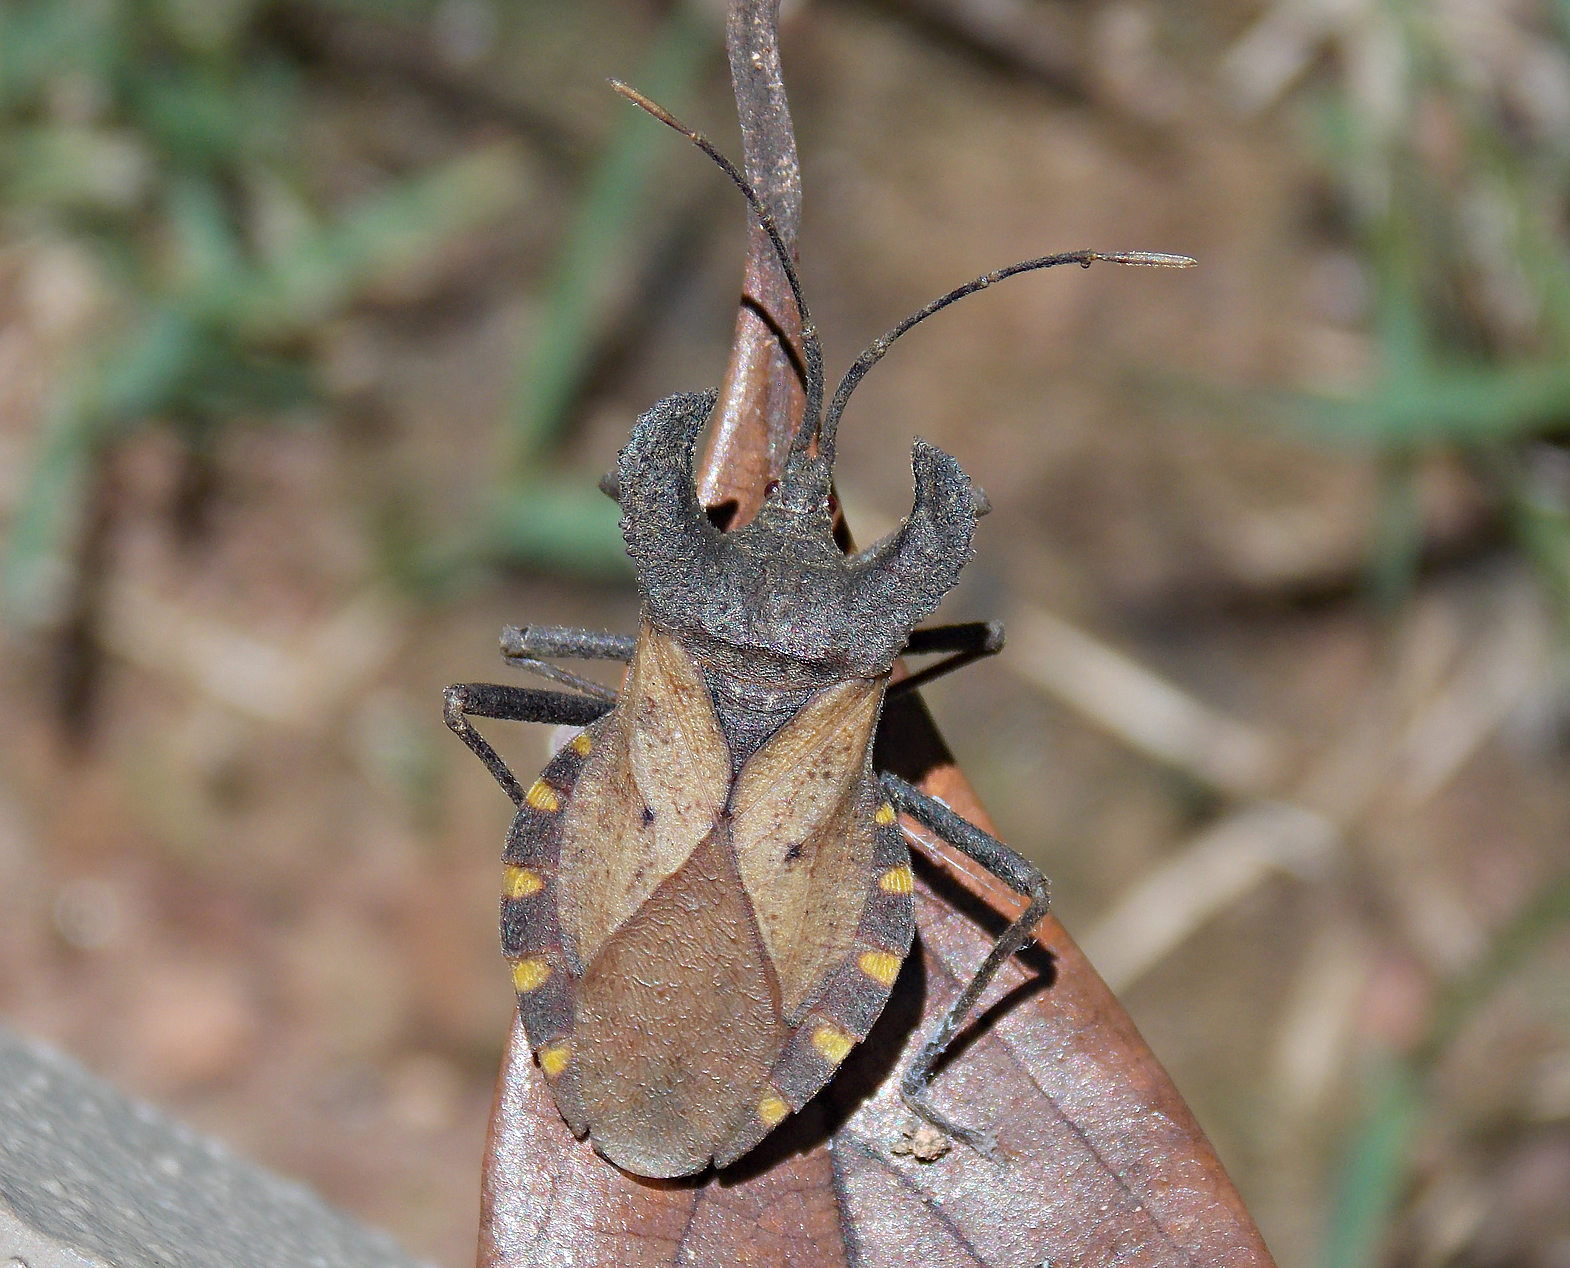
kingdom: Animalia
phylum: Arthropoda
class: Insecta
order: Hemiptera
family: Coreidae
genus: Menenotus
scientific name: Menenotus diminutus
